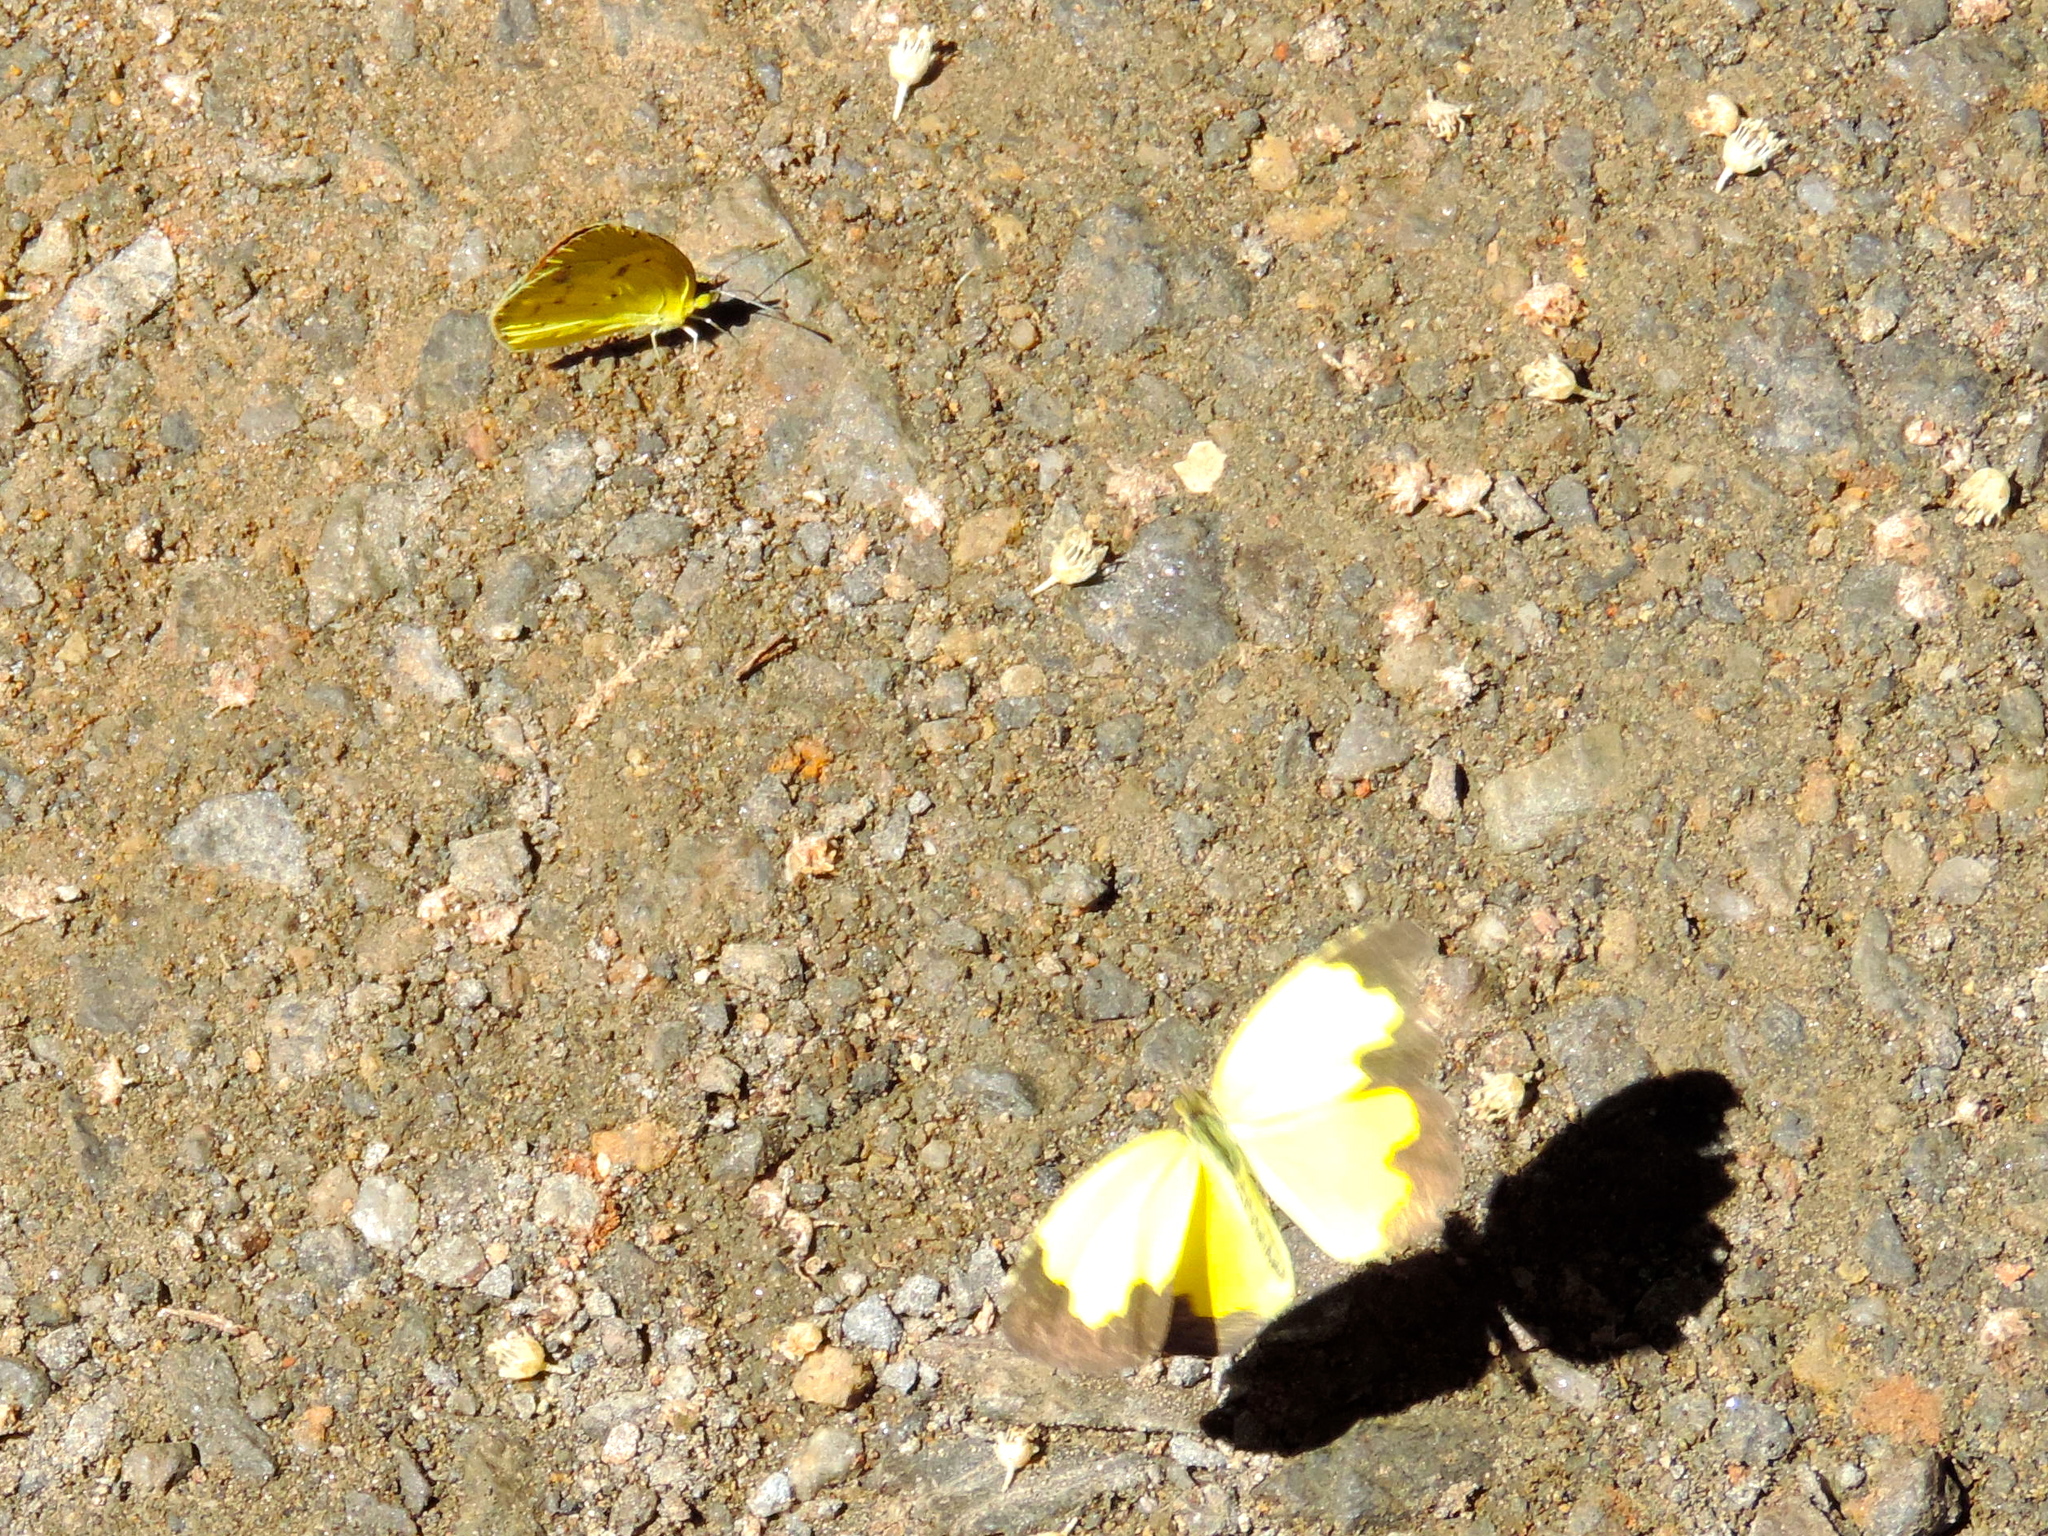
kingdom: Animalia
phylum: Arthropoda
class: Insecta
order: Lepidoptera
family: Pieridae
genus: Abaeis
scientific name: Abaeis nicippe
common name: Sleepy orange
